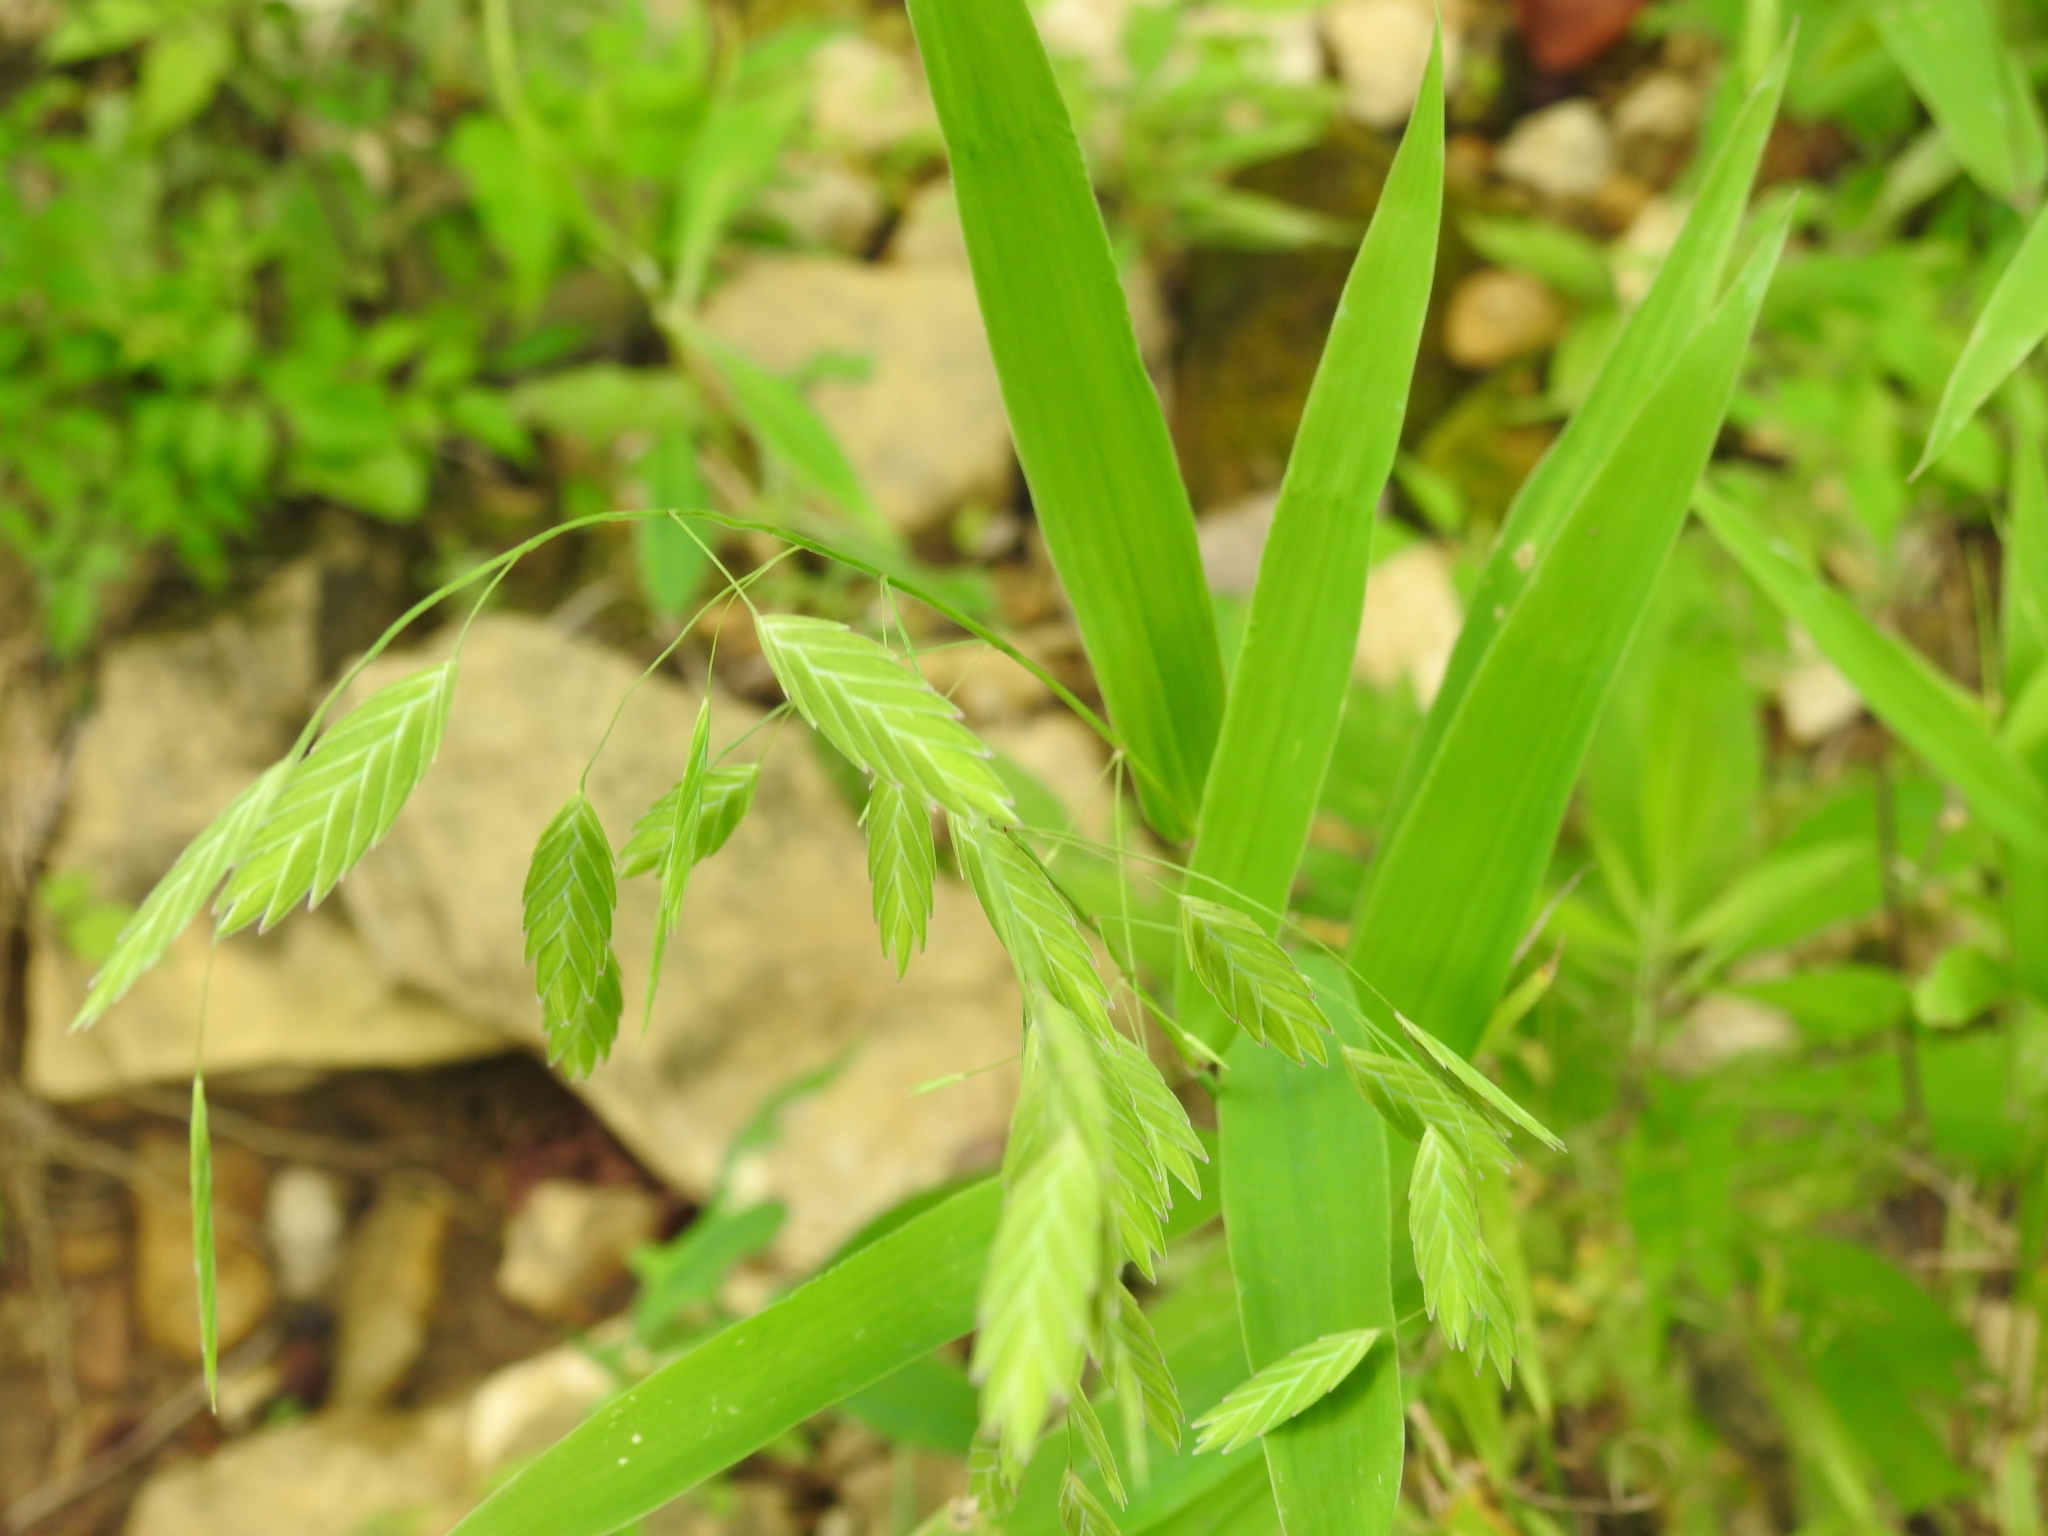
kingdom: Plantae
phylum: Tracheophyta
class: Liliopsida
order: Poales
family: Poaceae
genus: Chasmanthium
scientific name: Chasmanthium latifolium
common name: Broad-leaved chasmanthium
